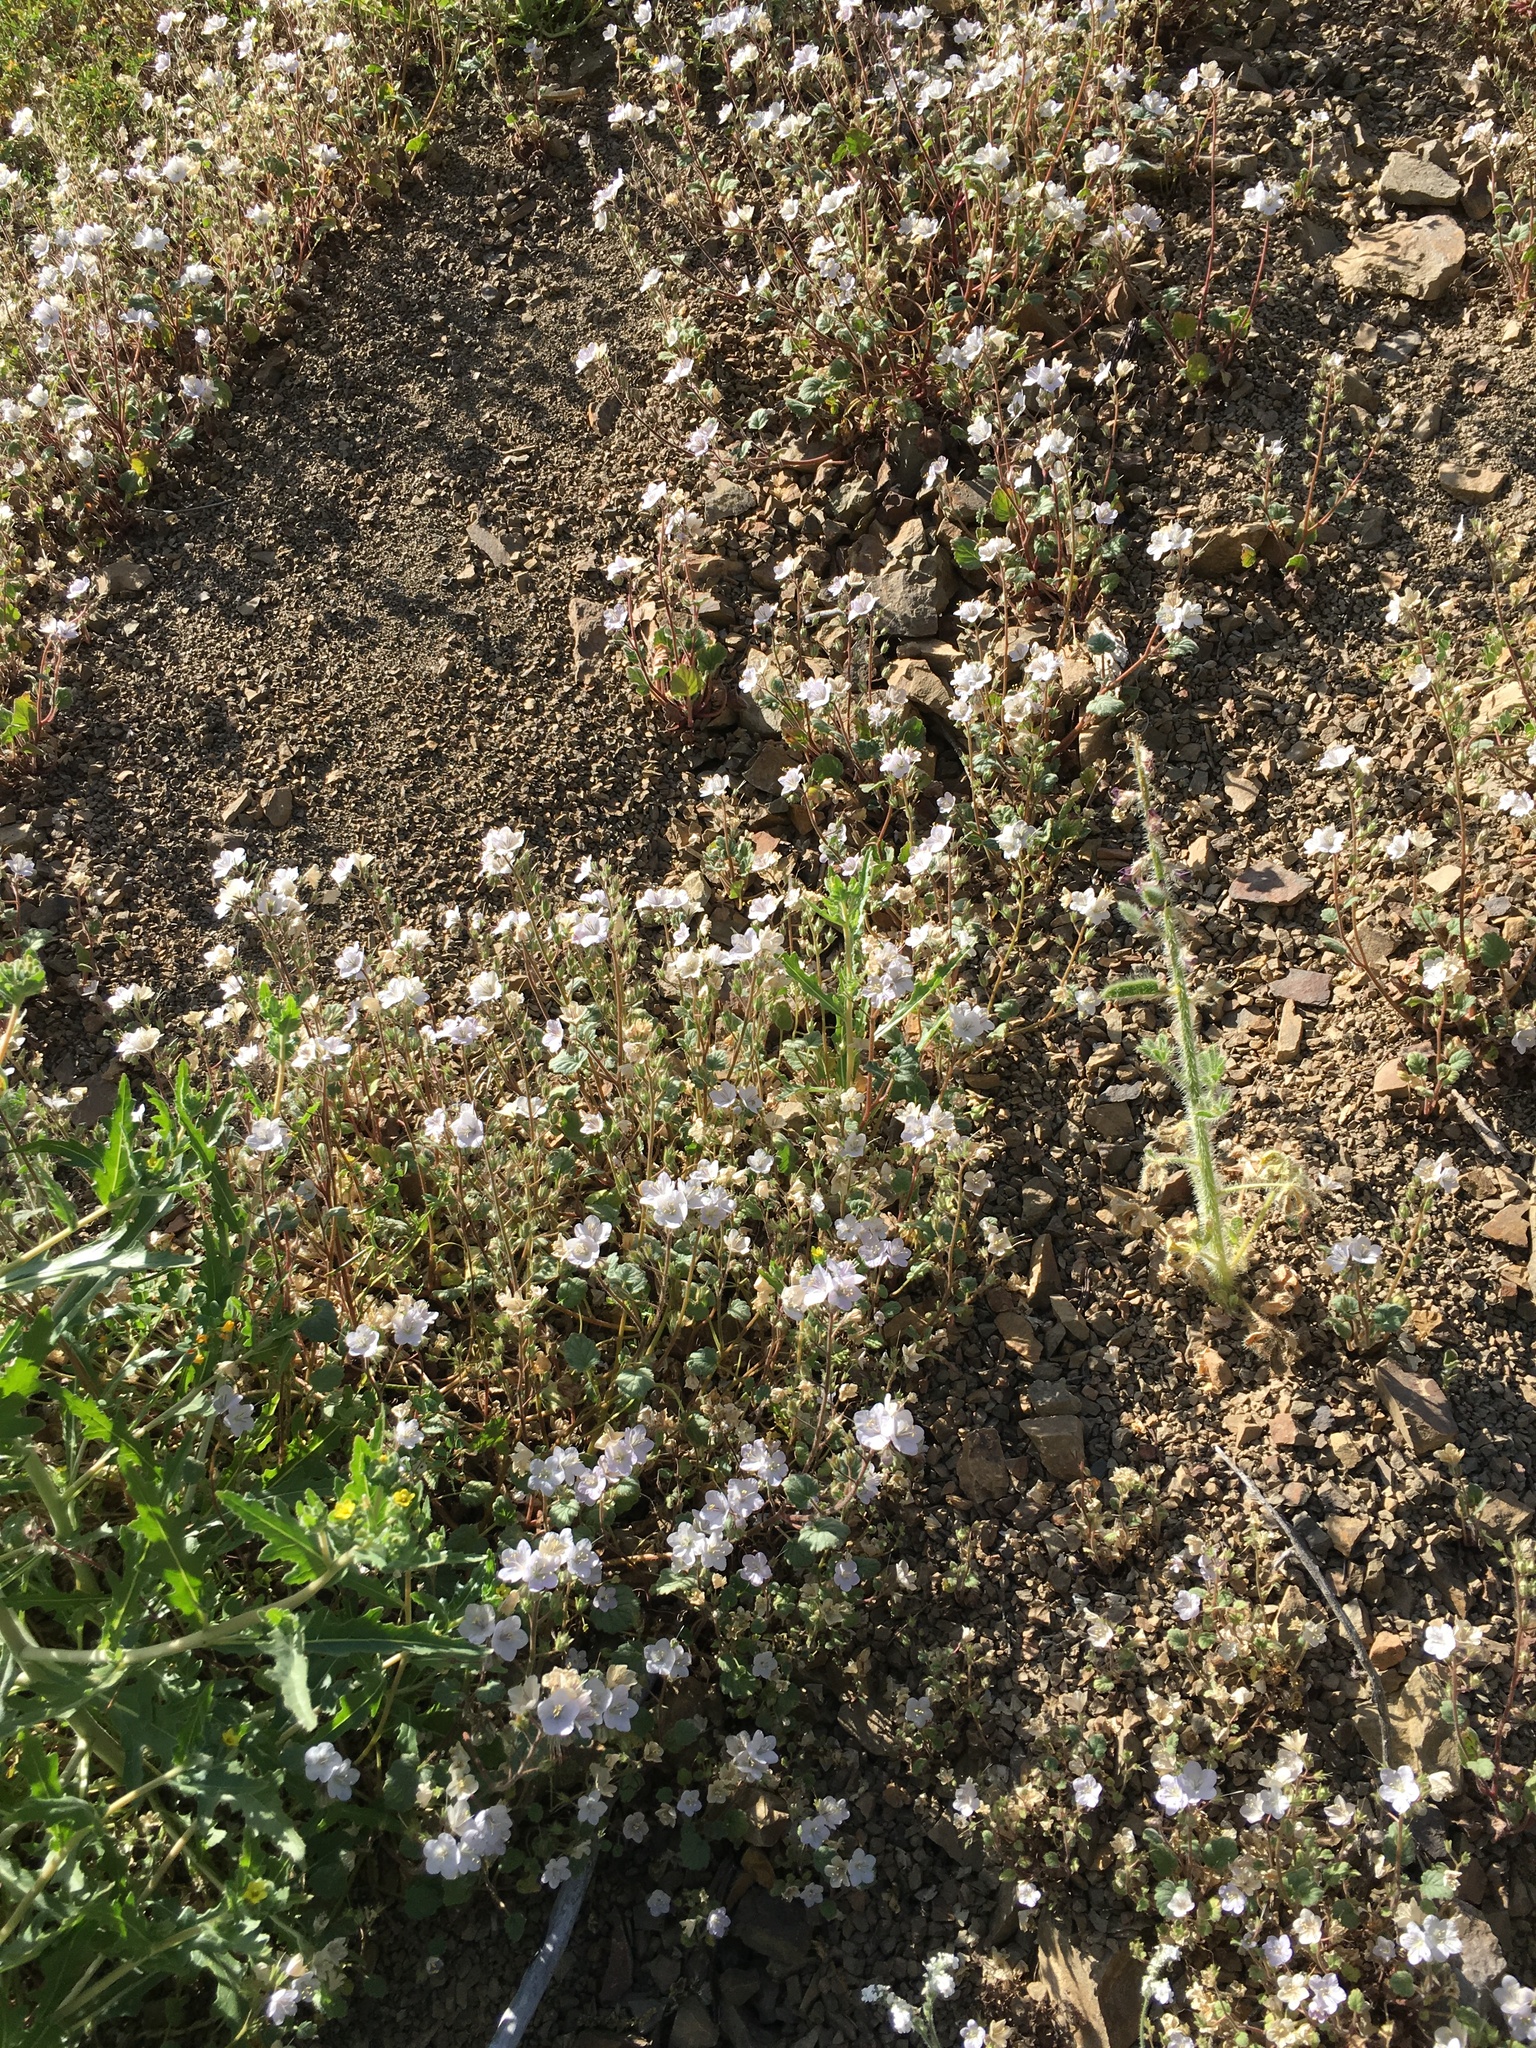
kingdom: Plantae
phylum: Tracheophyta
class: Magnoliopsida
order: Boraginales
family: Hydrophyllaceae
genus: Phacelia
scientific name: Phacelia longipes
